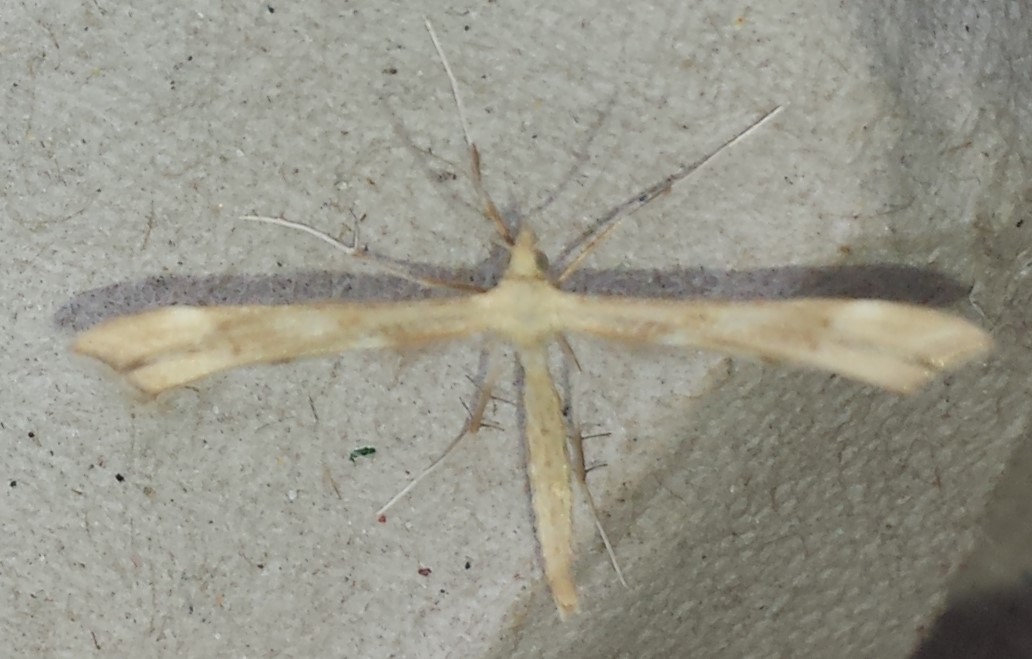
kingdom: Animalia
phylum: Arthropoda
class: Insecta
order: Lepidoptera
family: Pterophoridae
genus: Gillmeria
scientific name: Gillmeria pallidactyla
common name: Yarrow plume
